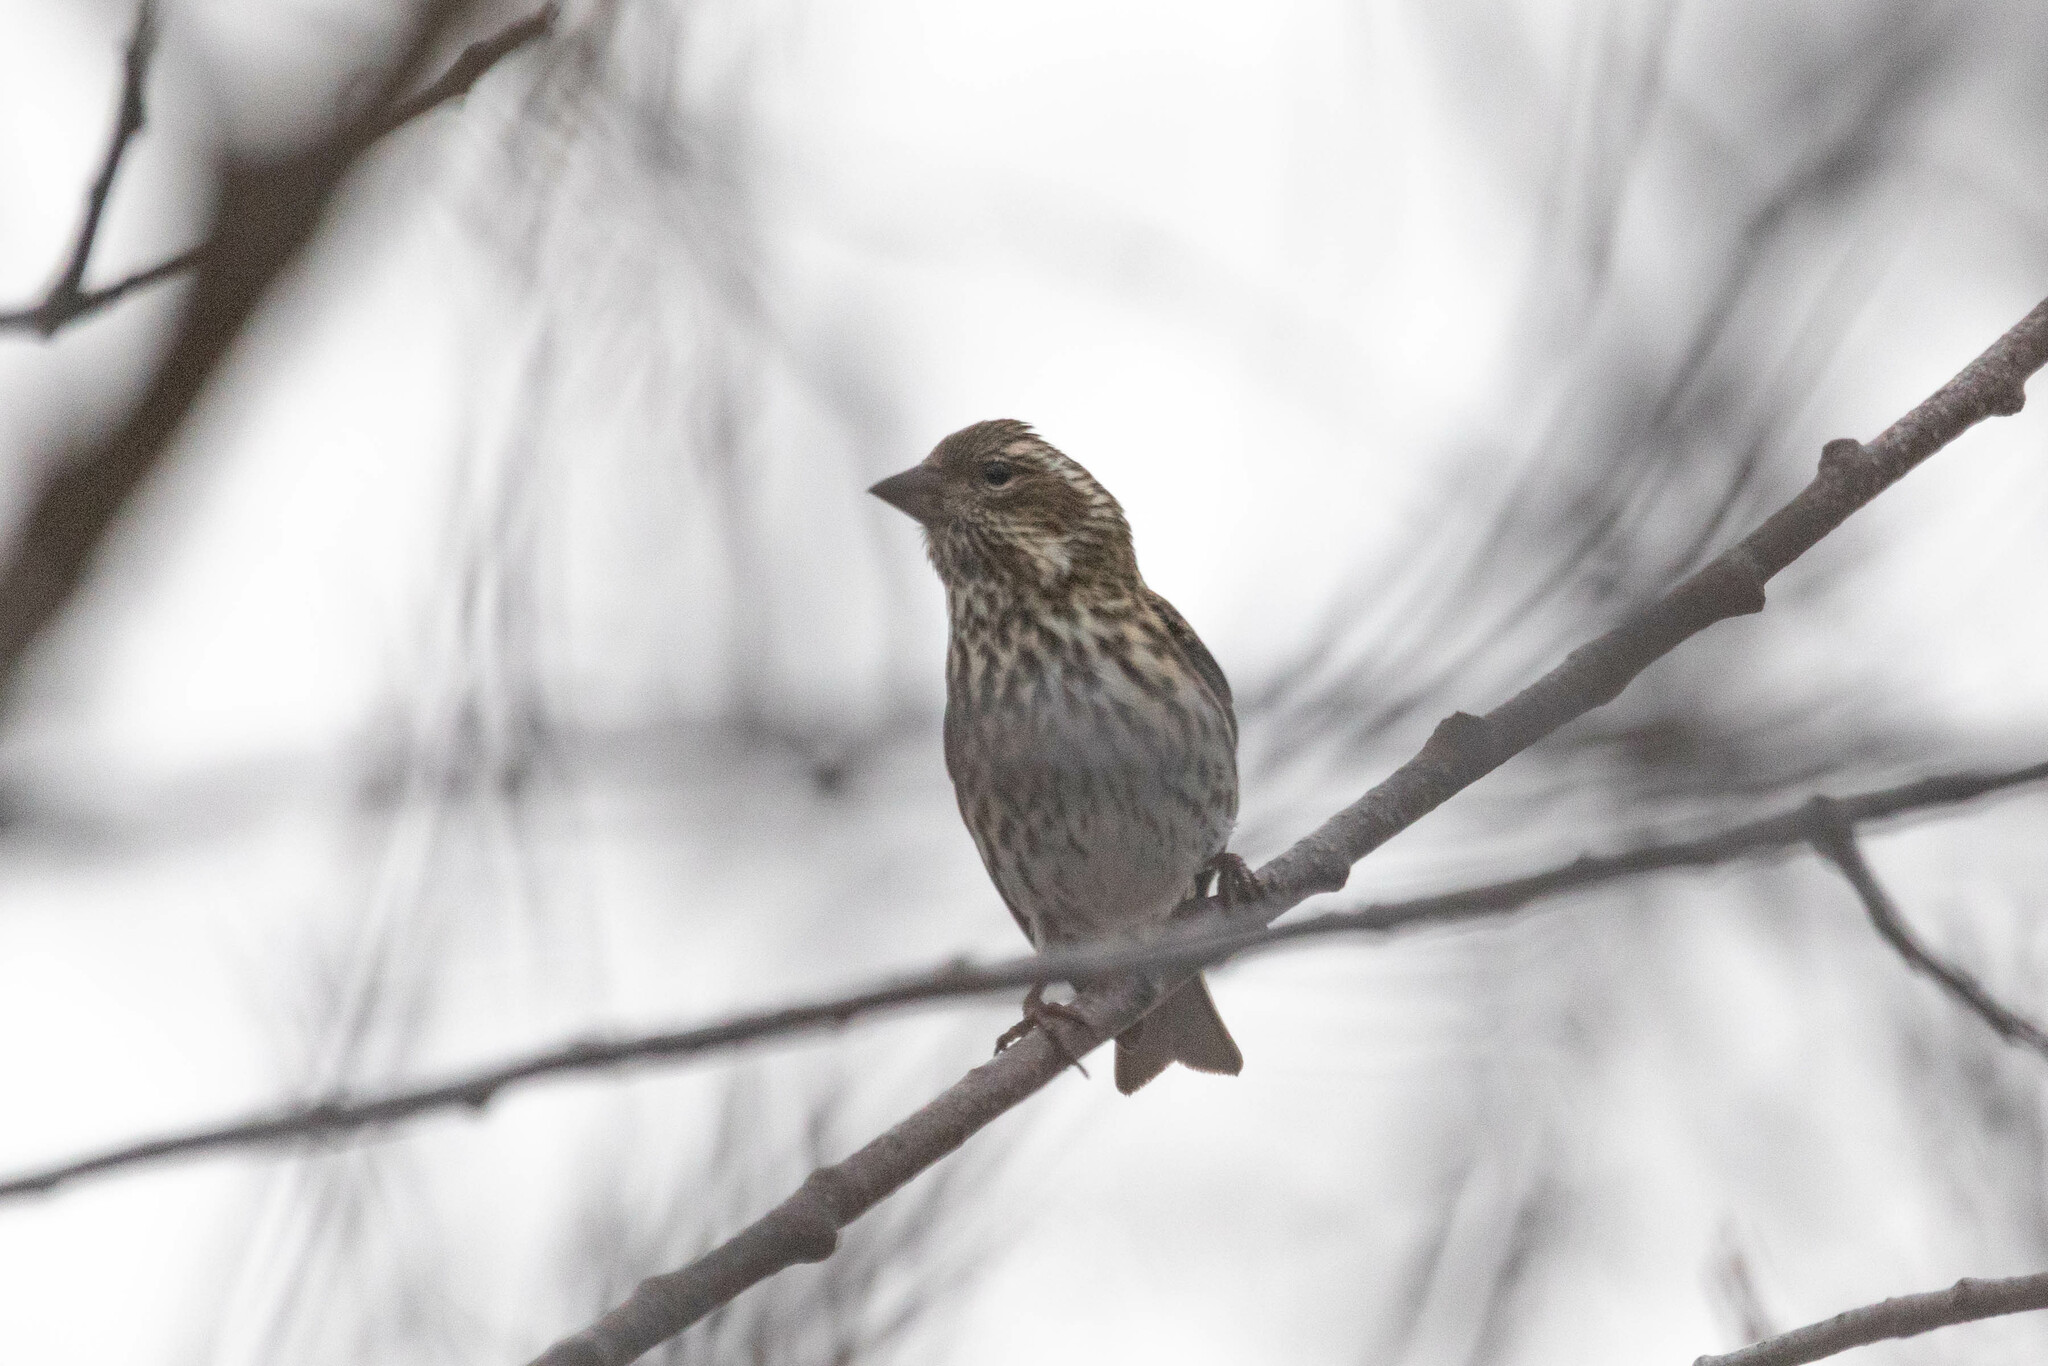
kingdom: Animalia
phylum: Chordata
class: Aves
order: Passeriformes
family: Fringillidae
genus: Haemorhous
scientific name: Haemorhous cassinii
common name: Cassin's finch
